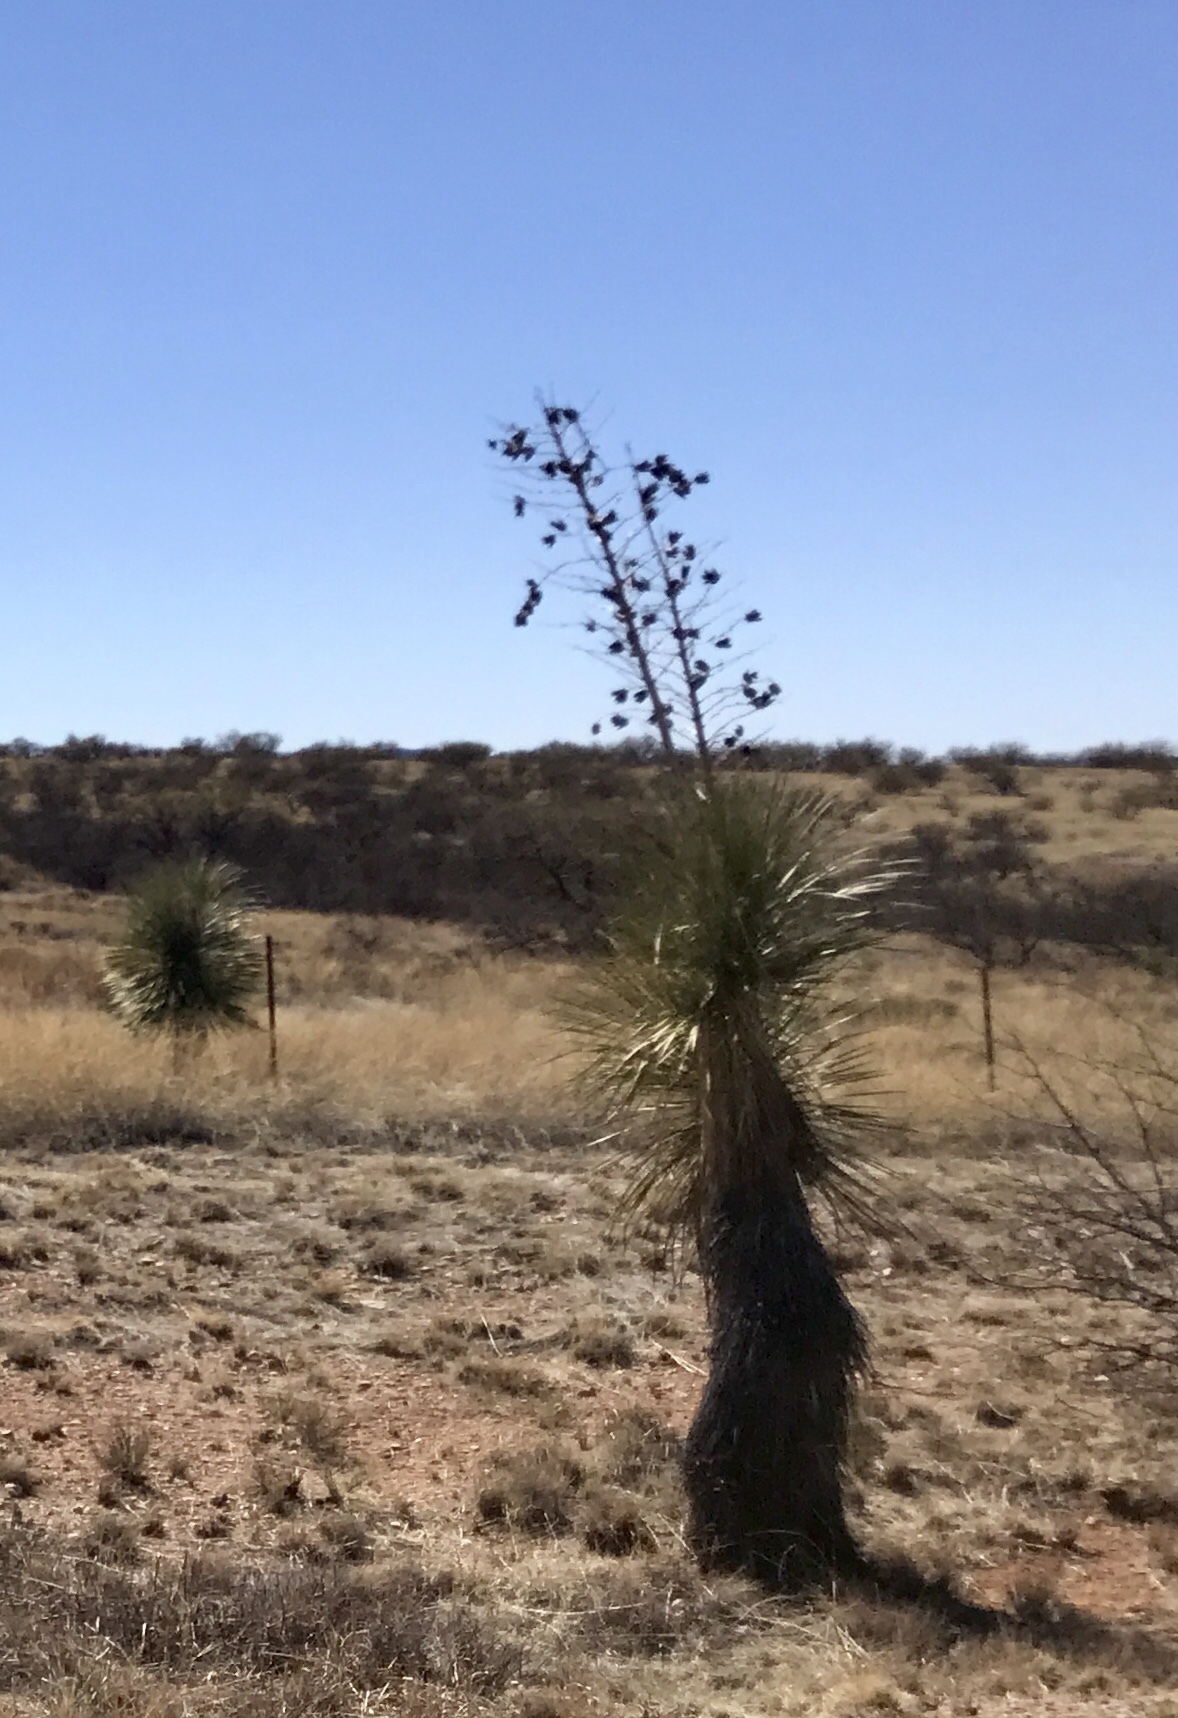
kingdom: Plantae
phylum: Tracheophyta
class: Liliopsida
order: Asparagales
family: Asparagaceae
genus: Yucca
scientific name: Yucca elata
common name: Palmella
